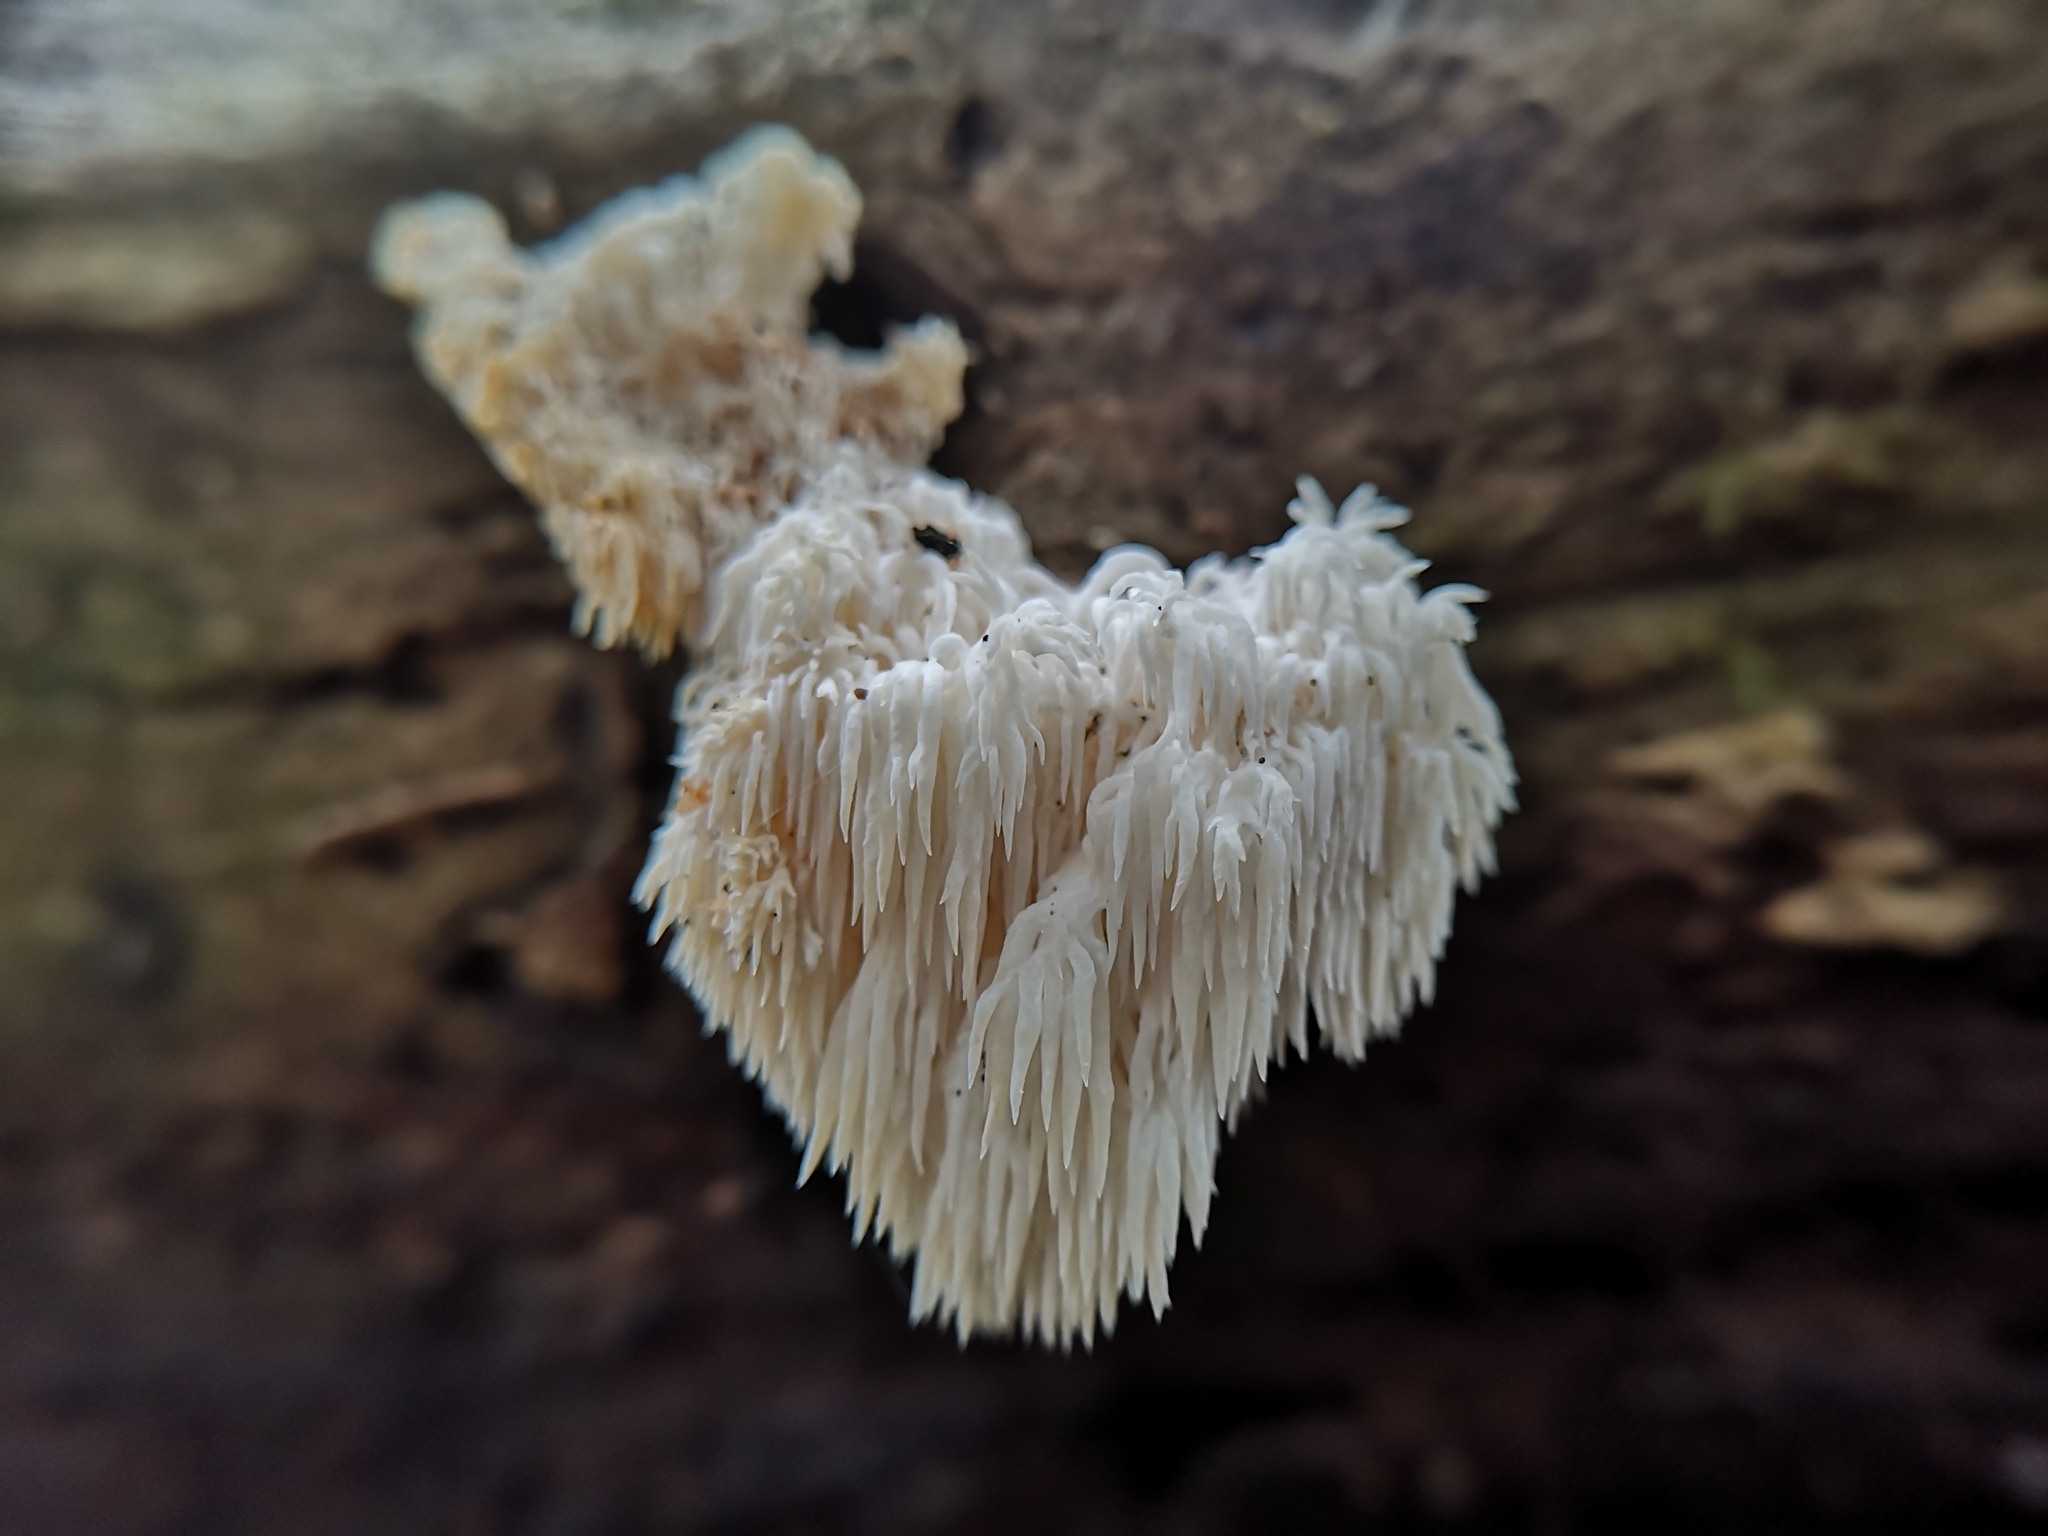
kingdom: Fungi
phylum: Basidiomycota
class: Agaricomycetes
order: Russulales
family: Hericiaceae
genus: Hericium
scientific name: Hericium americanum
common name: Bear's head tooth
